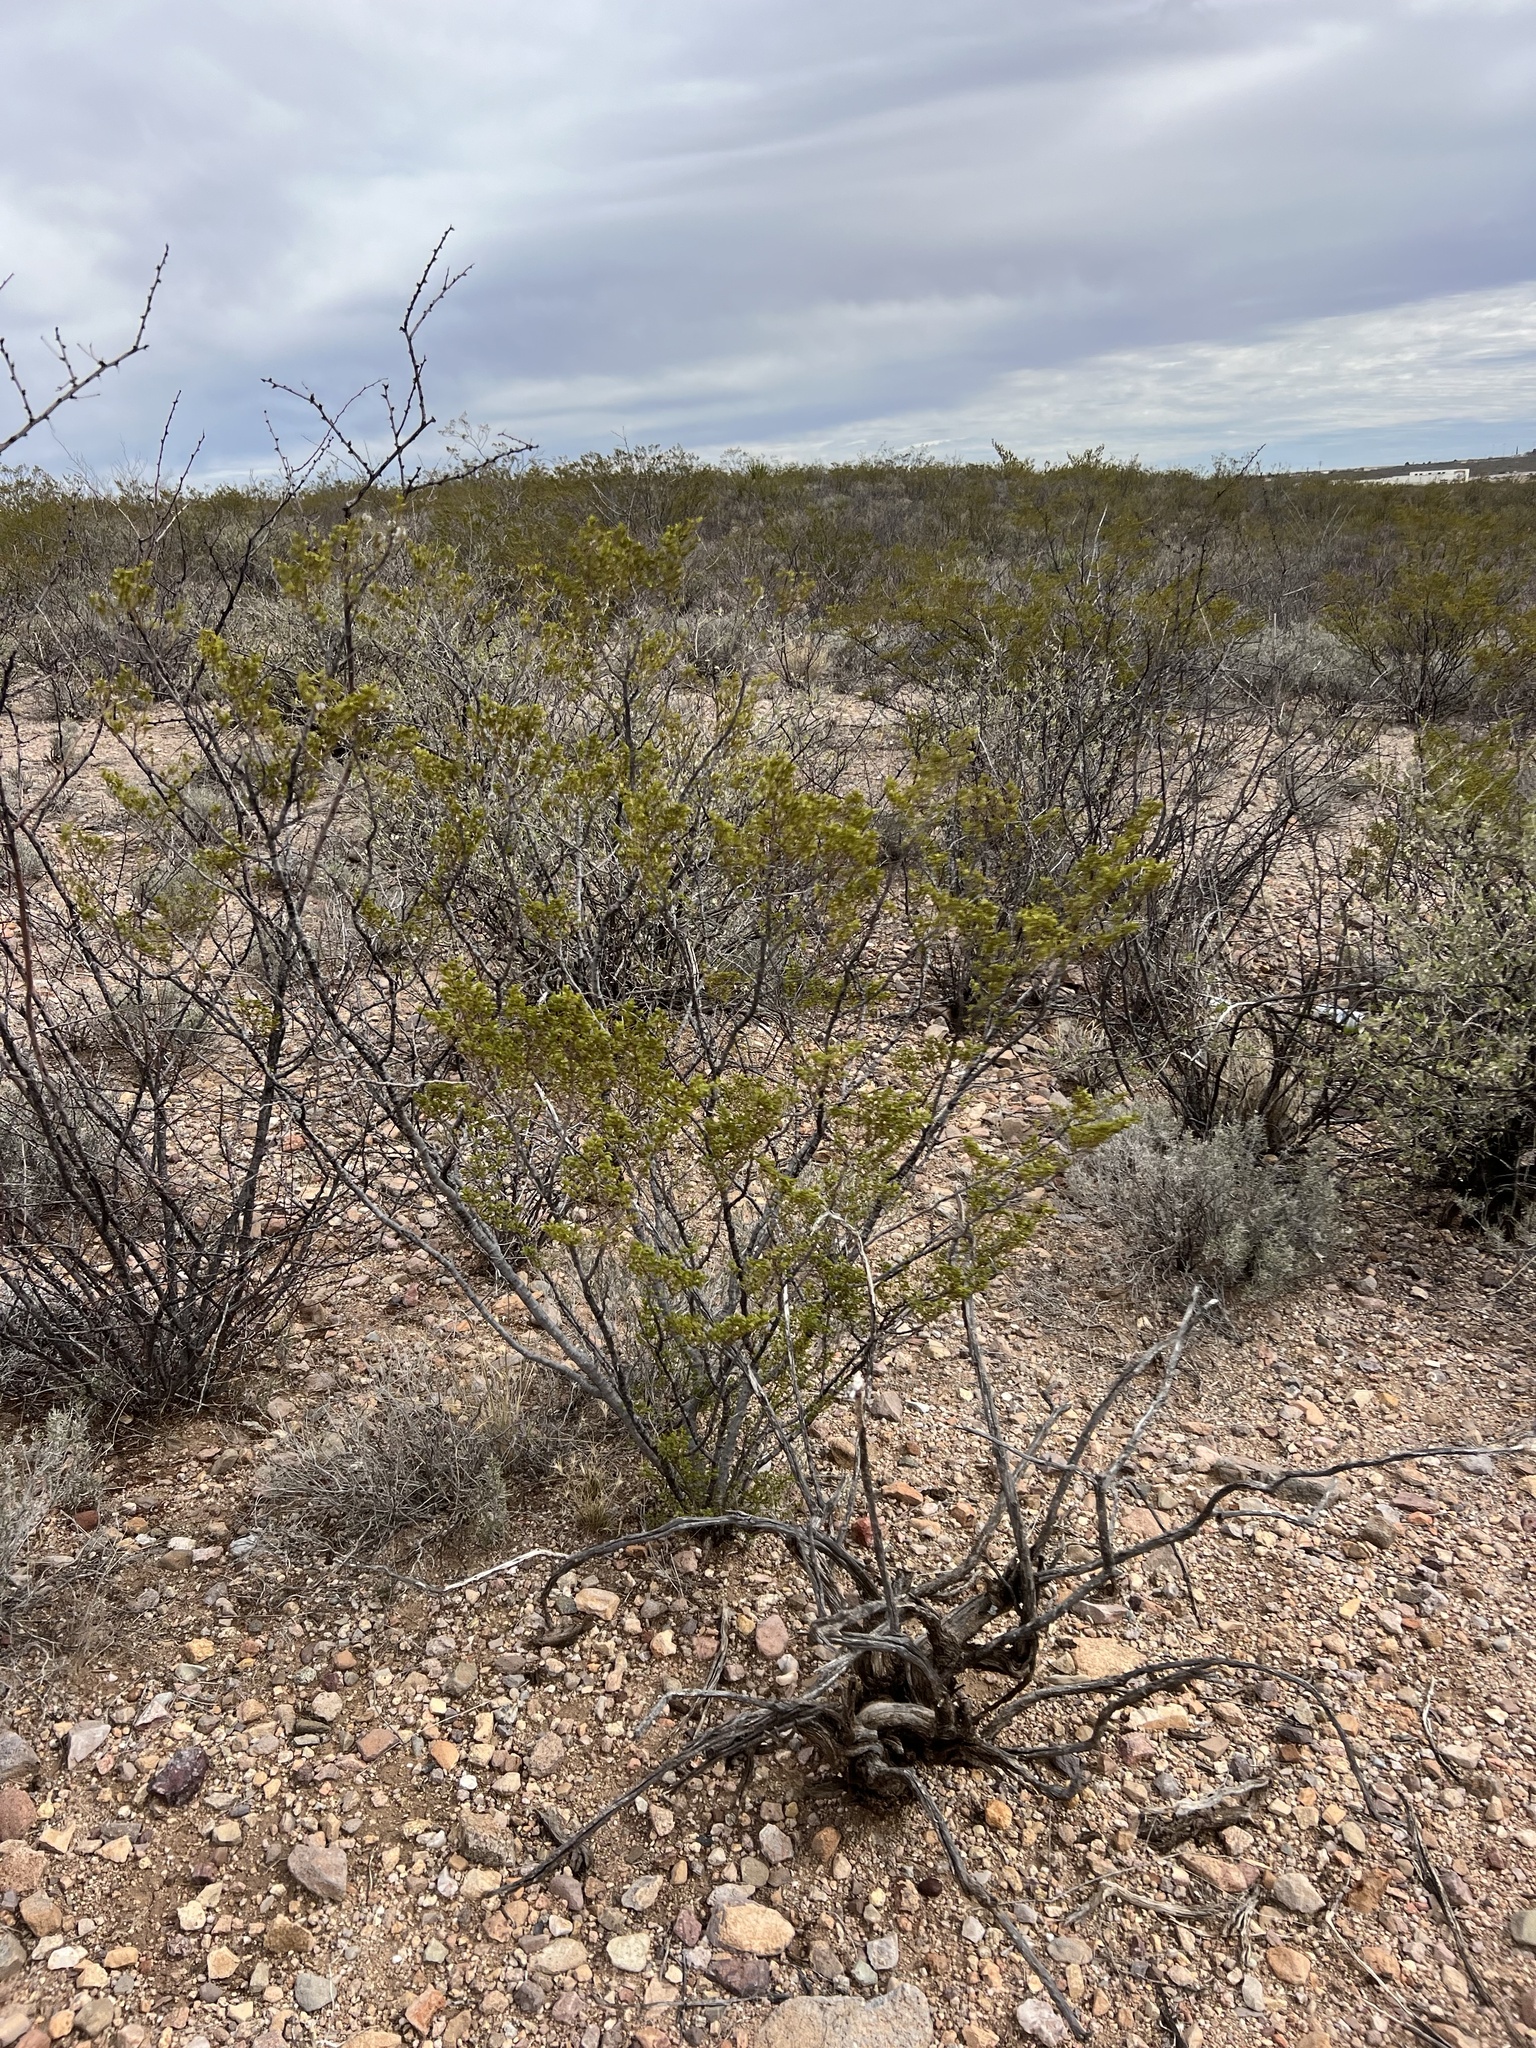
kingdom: Plantae
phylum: Tracheophyta
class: Magnoliopsida
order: Zygophyllales
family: Zygophyllaceae
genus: Larrea
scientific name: Larrea tridentata
